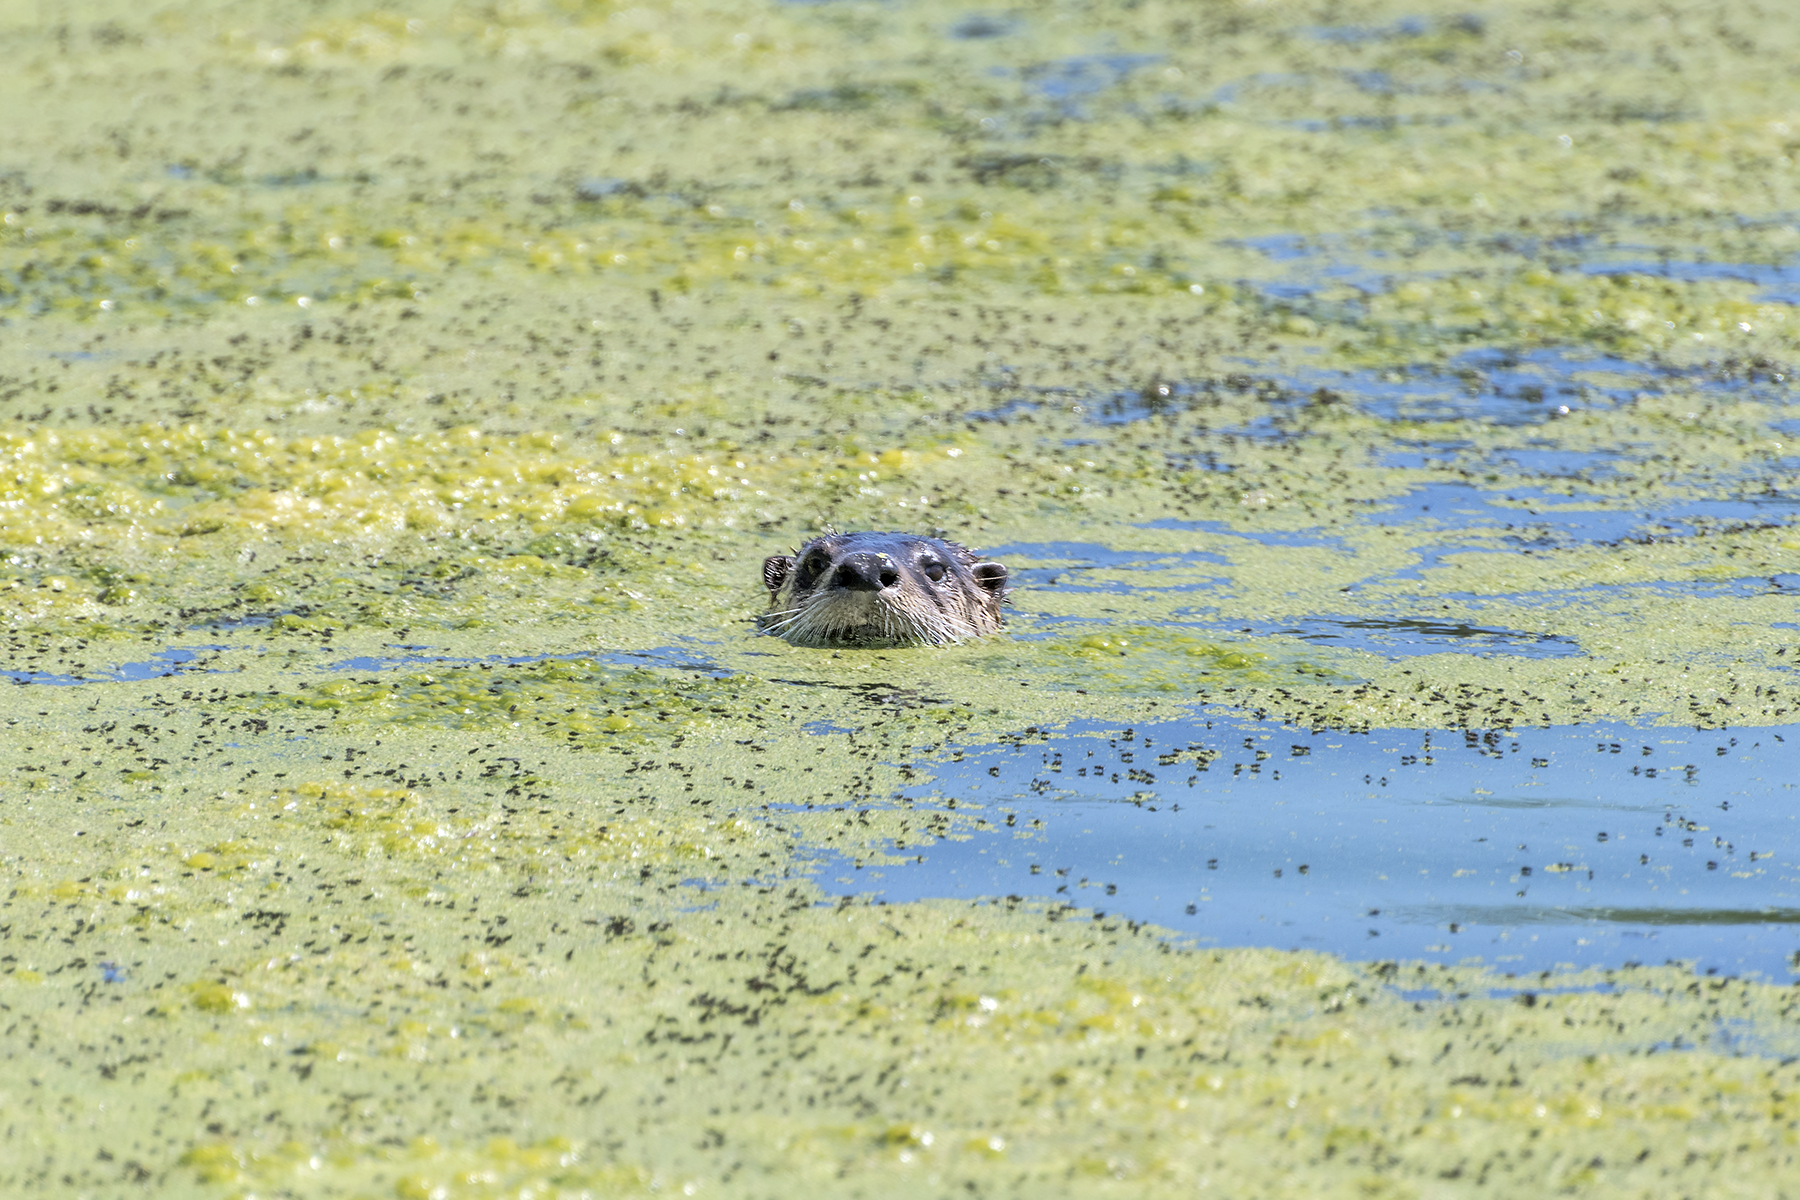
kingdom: Animalia
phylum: Chordata
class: Mammalia
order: Carnivora
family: Mustelidae
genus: Lontra
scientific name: Lontra canadensis
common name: North american river otter
